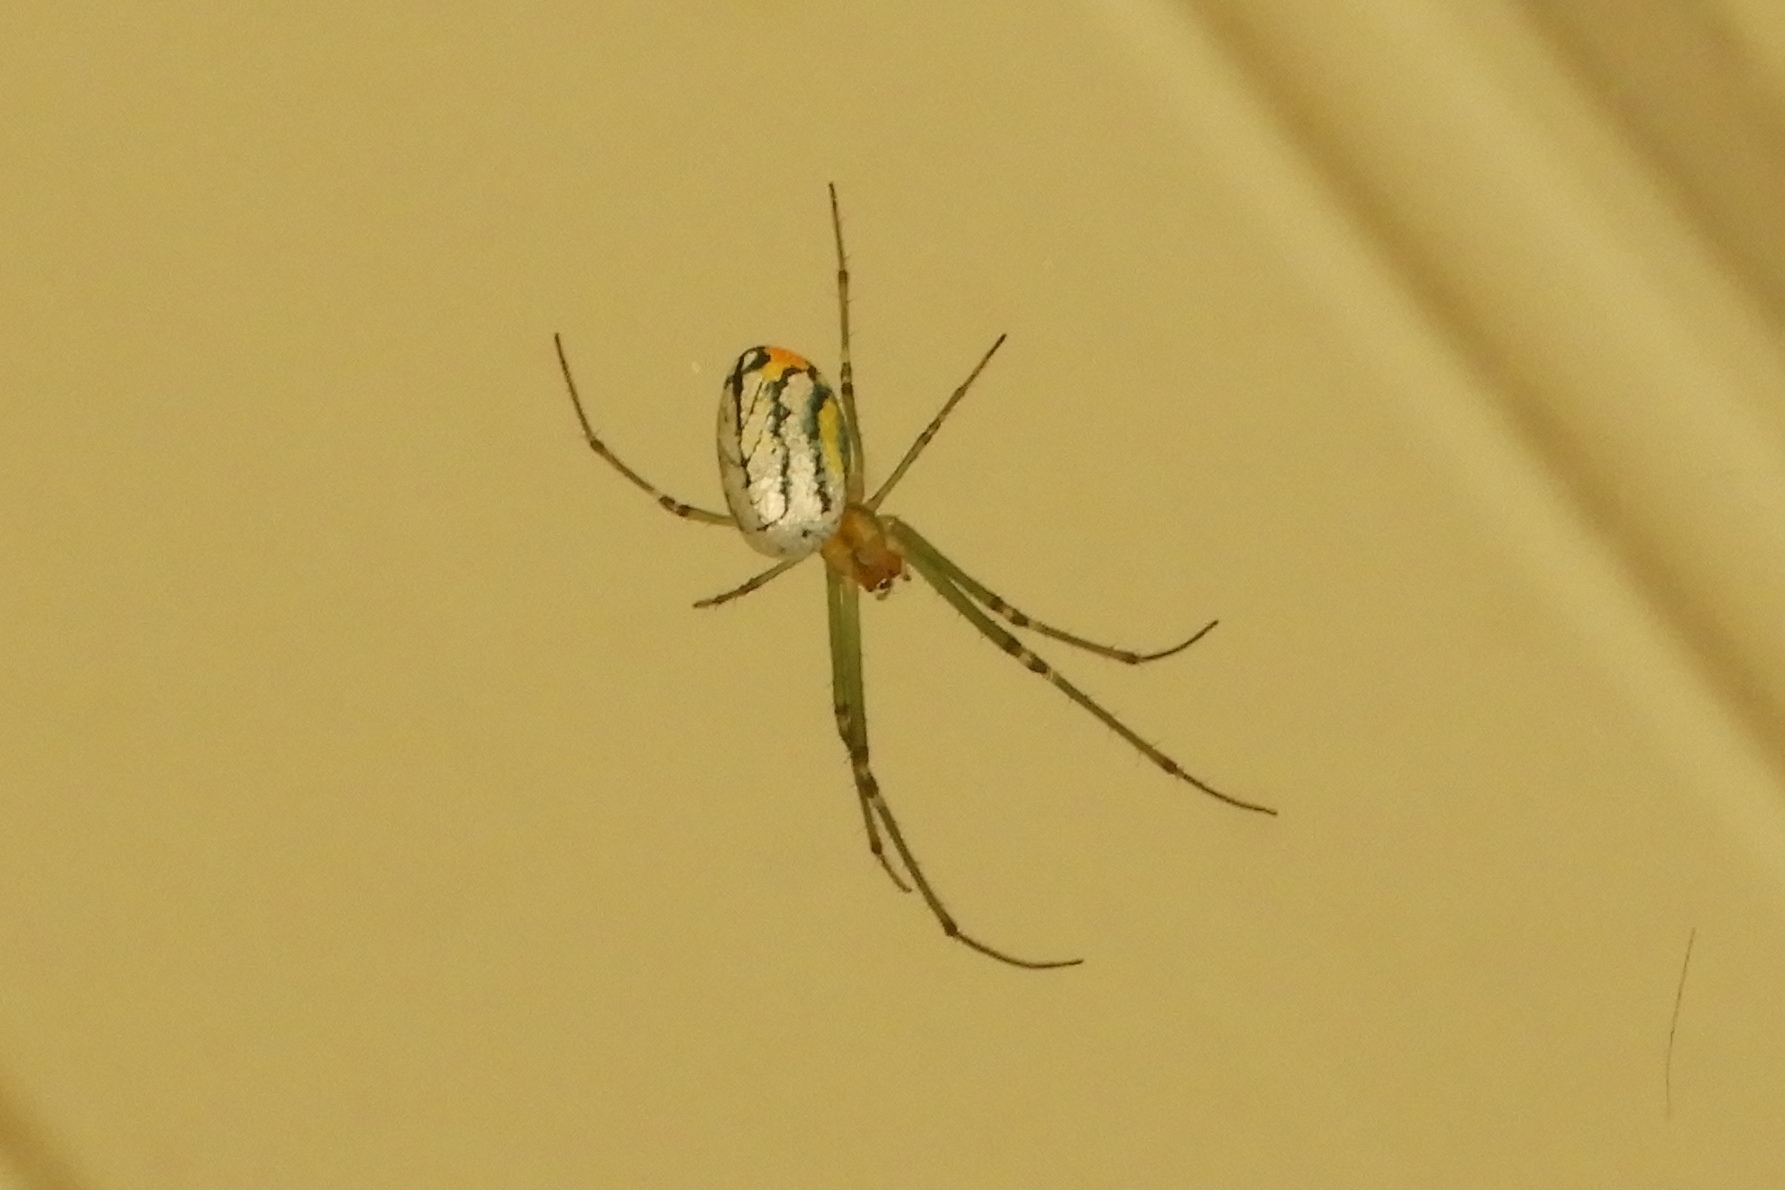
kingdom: Animalia
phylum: Arthropoda
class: Arachnida
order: Araneae
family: Tetragnathidae
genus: Leucauge
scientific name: Leucauge argyrobapta
